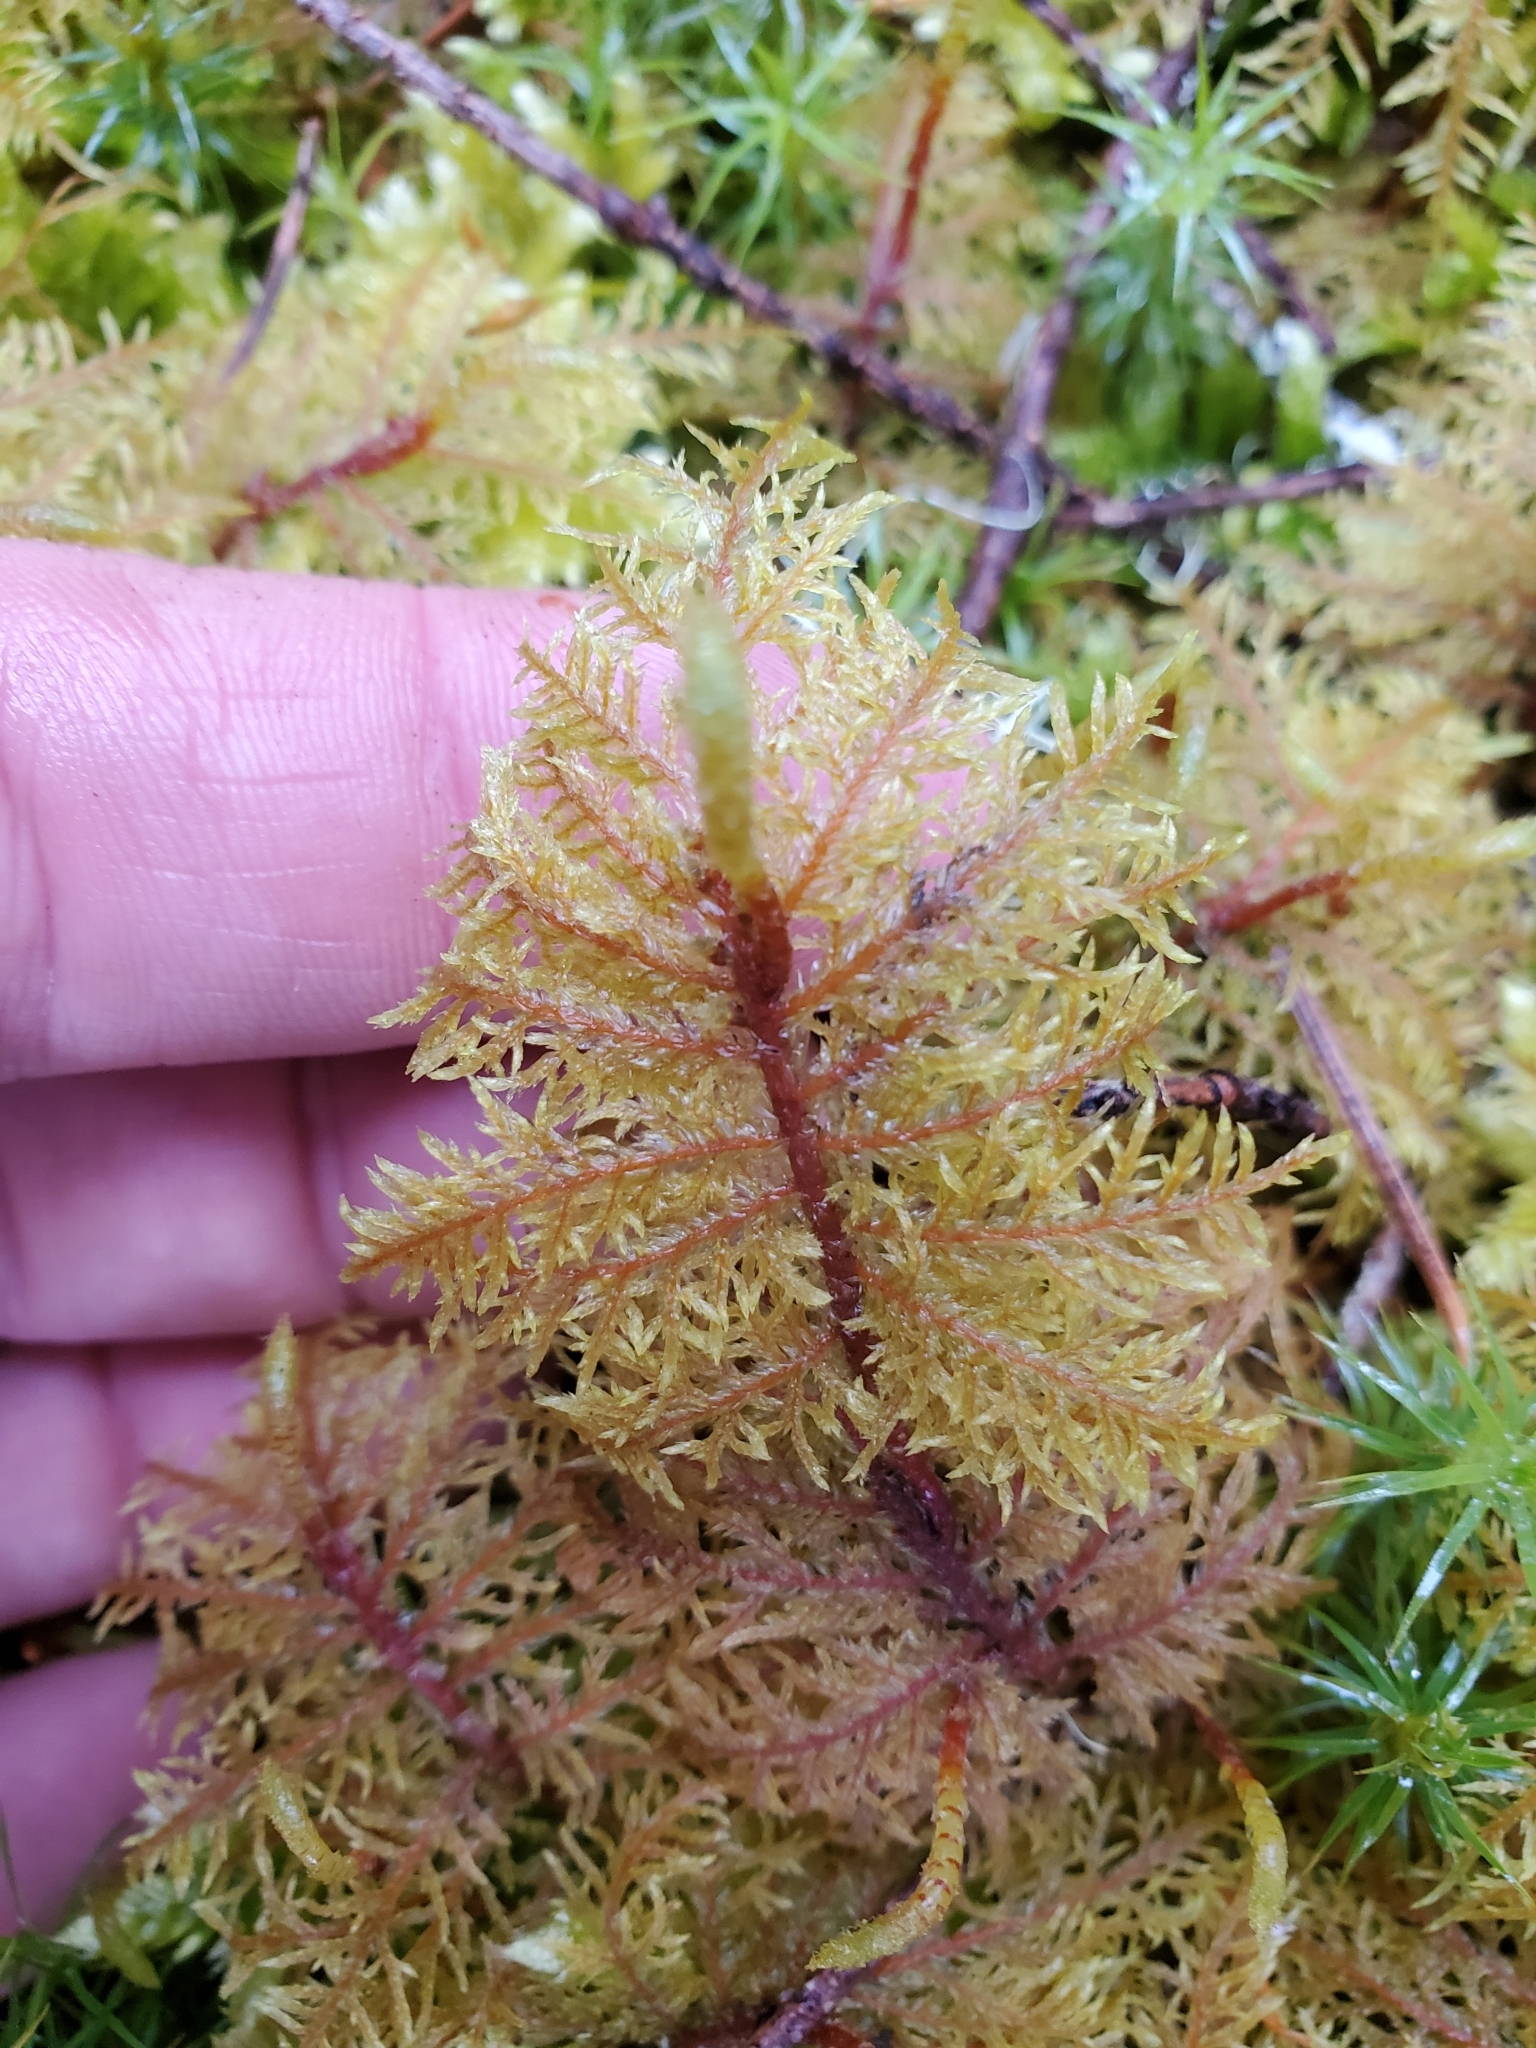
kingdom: Plantae
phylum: Bryophyta
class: Bryopsida
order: Hypnales
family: Hylocomiaceae
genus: Hylocomium
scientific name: Hylocomium splendens
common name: Stairstep moss
